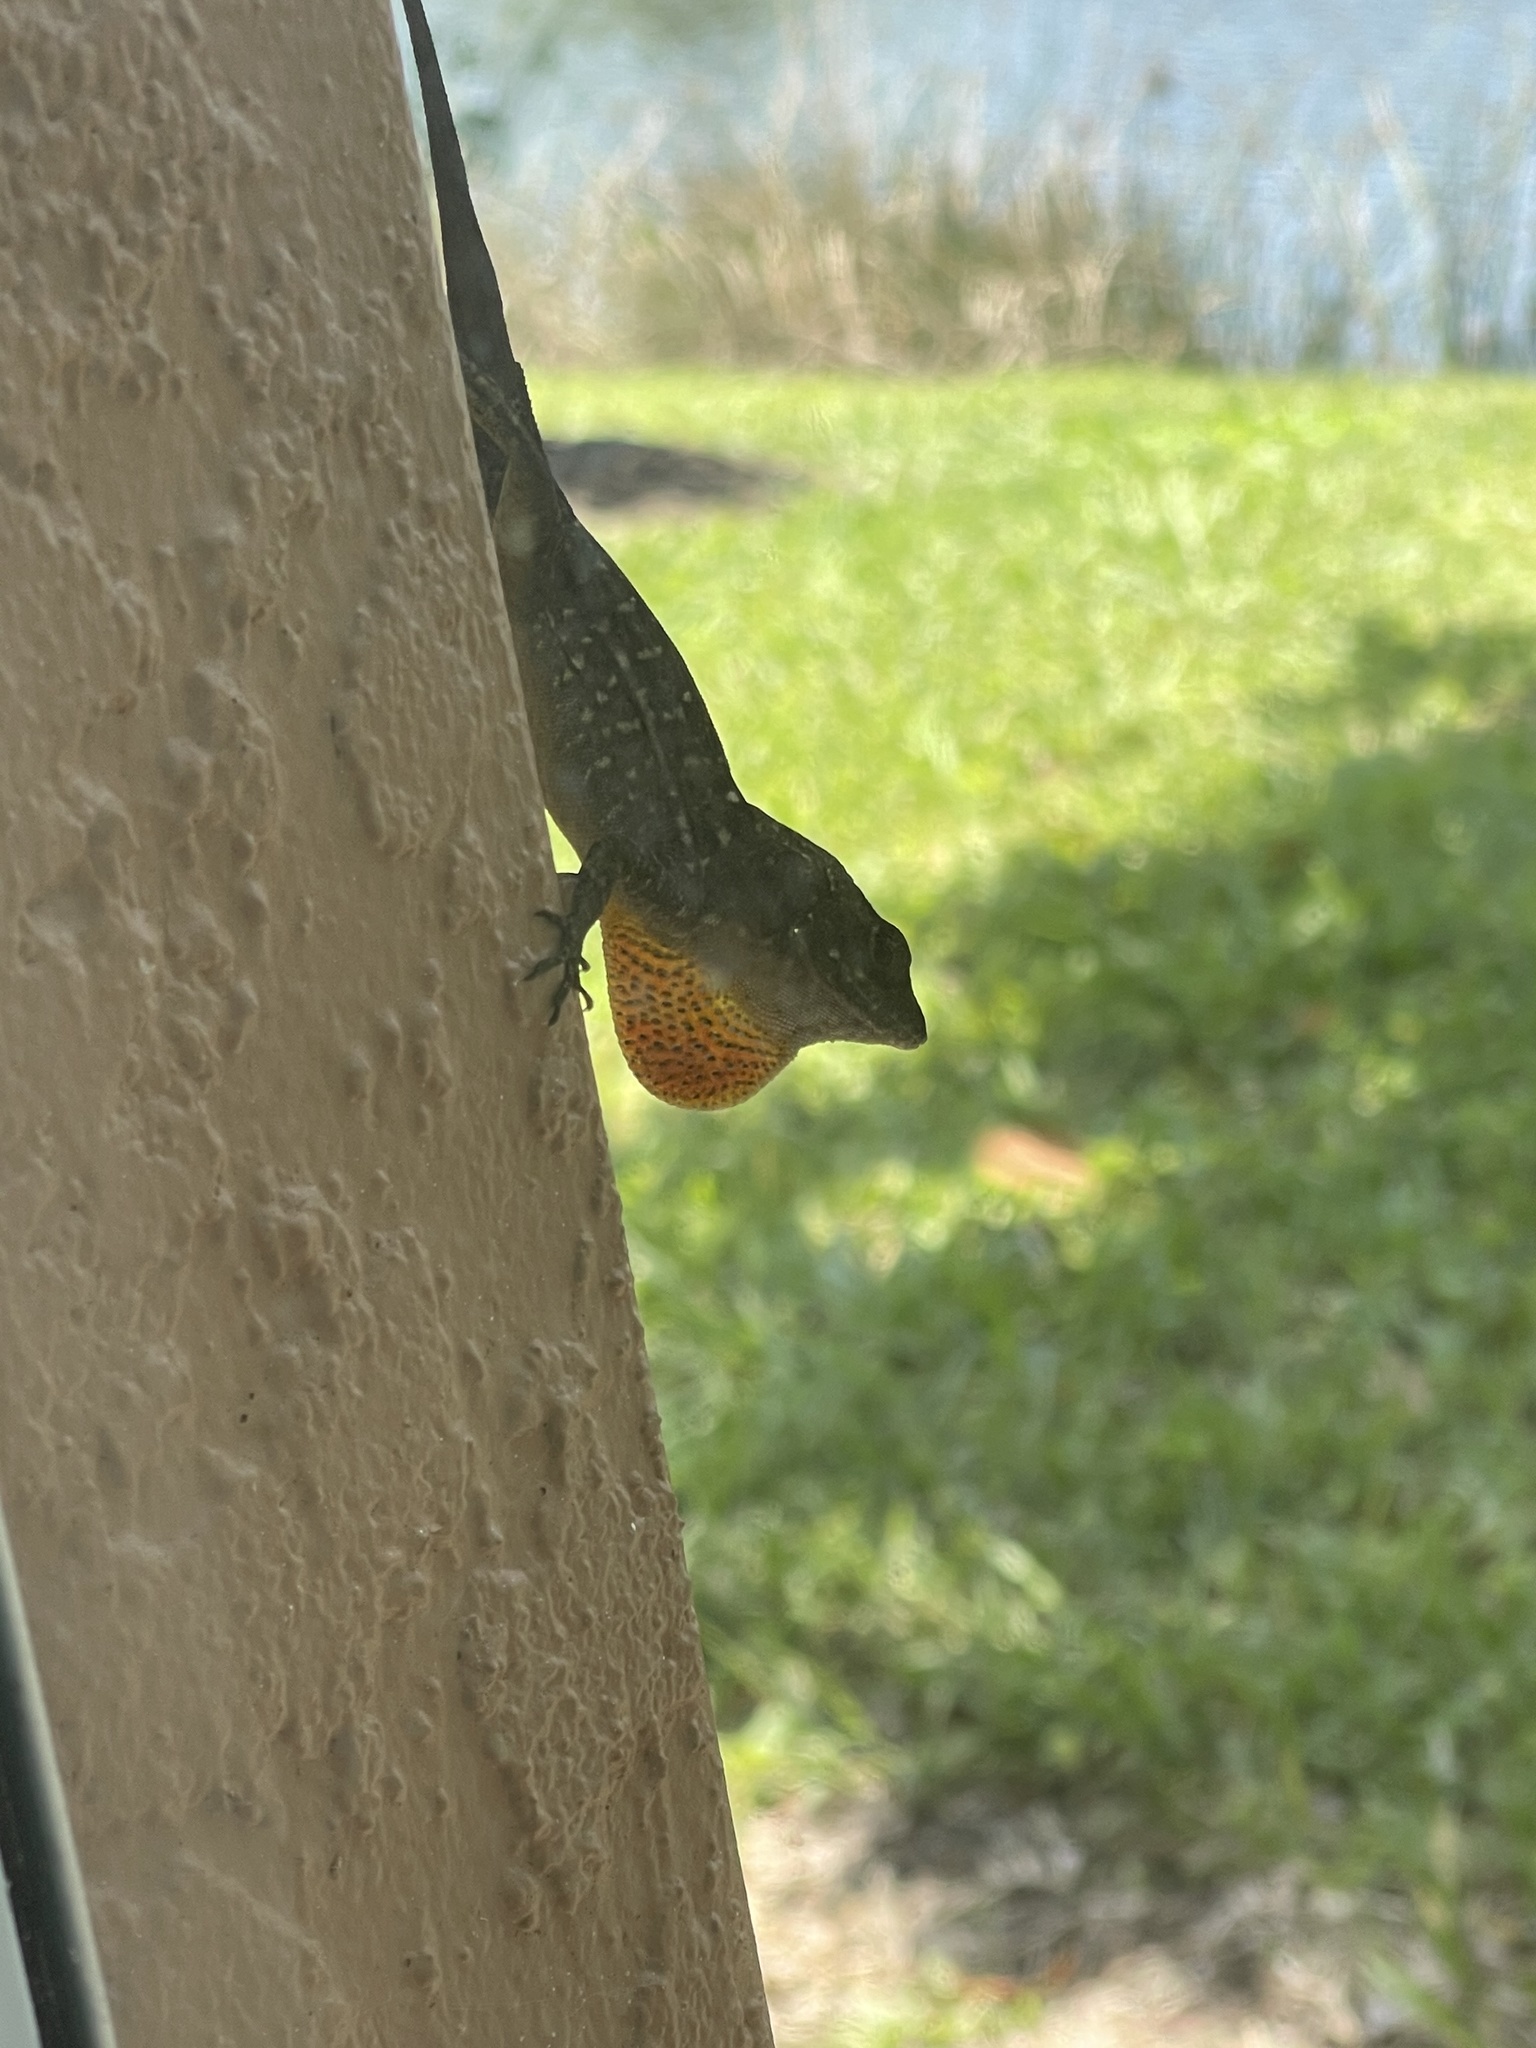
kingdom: Animalia
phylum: Chordata
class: Squamata
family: Dactyloidae
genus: Anolis
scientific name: Anolis sagrei
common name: Brown anole
